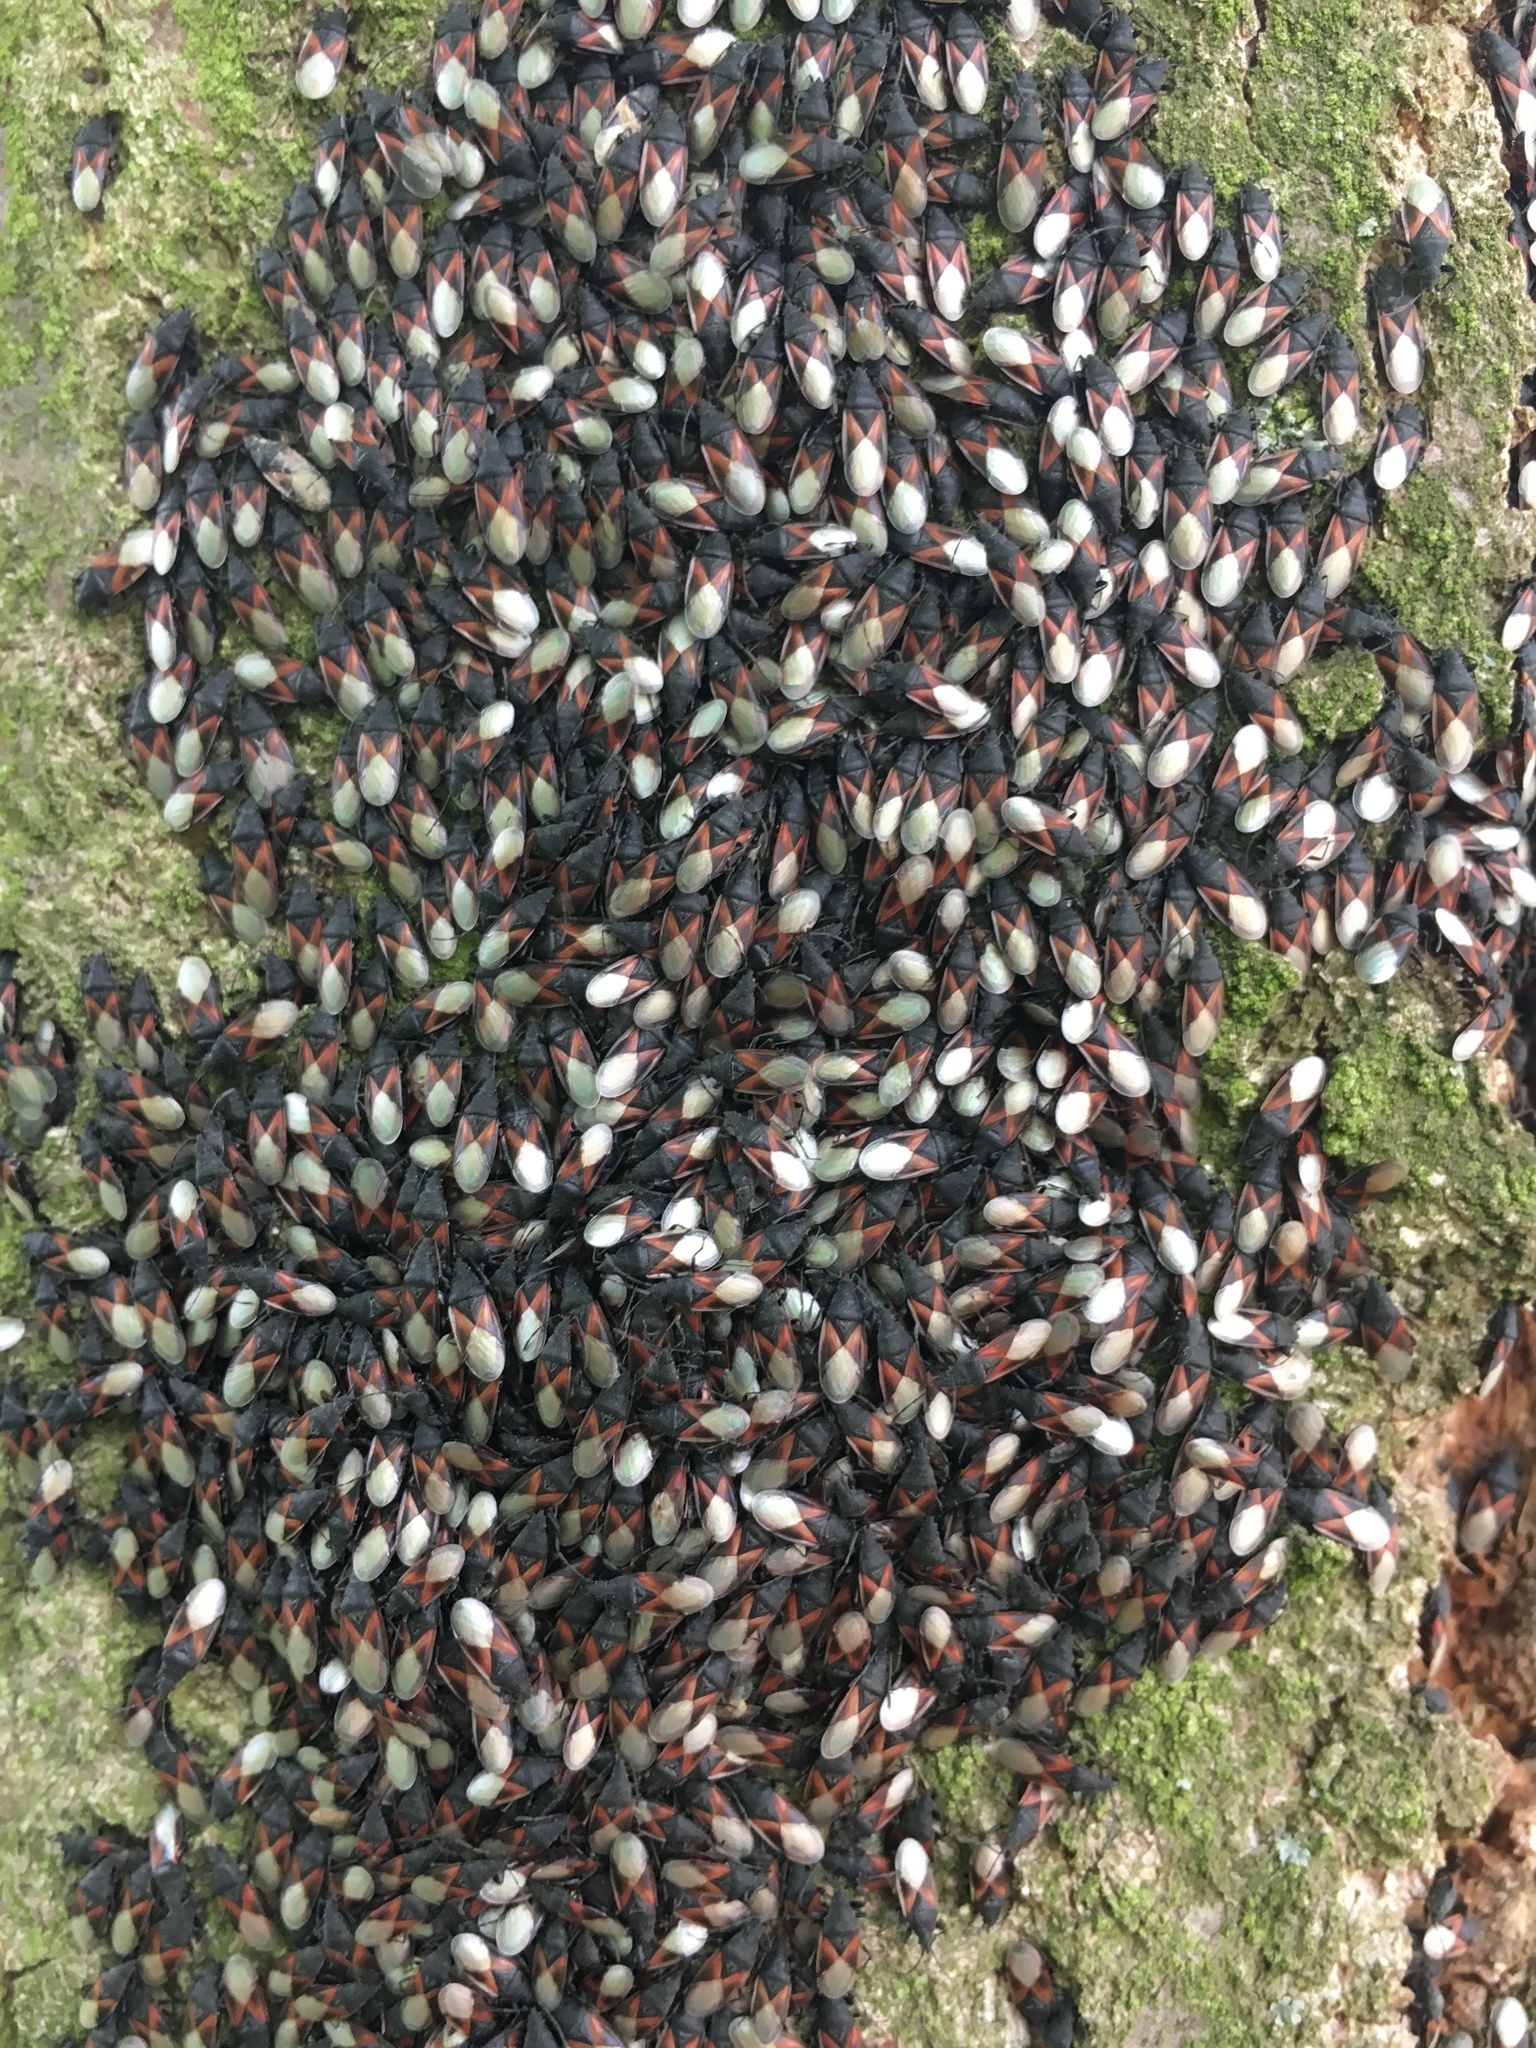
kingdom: Animalia
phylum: Arthropoda
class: Insecta
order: Hemiptera
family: Oxycarenidae
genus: Oxycarenus
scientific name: Oxycarenus lavaterae
